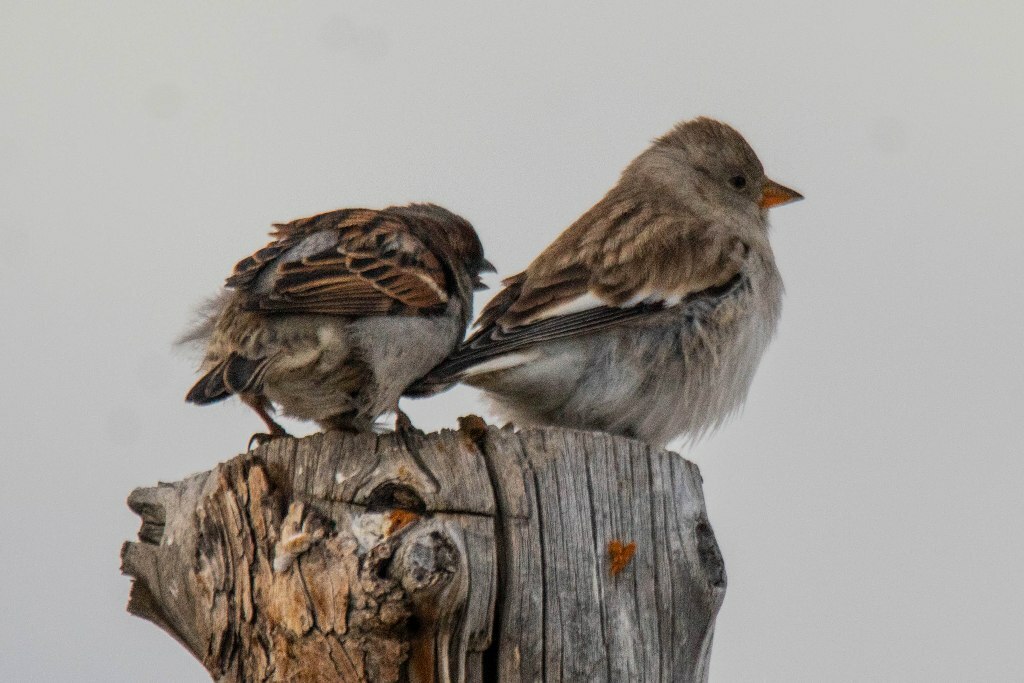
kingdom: Animalia
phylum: Chordata
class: Aves
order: Passeriformes
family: Passeridae
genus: Montifringilla
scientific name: Montifringilla nivalis
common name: White-winged snowfinch
